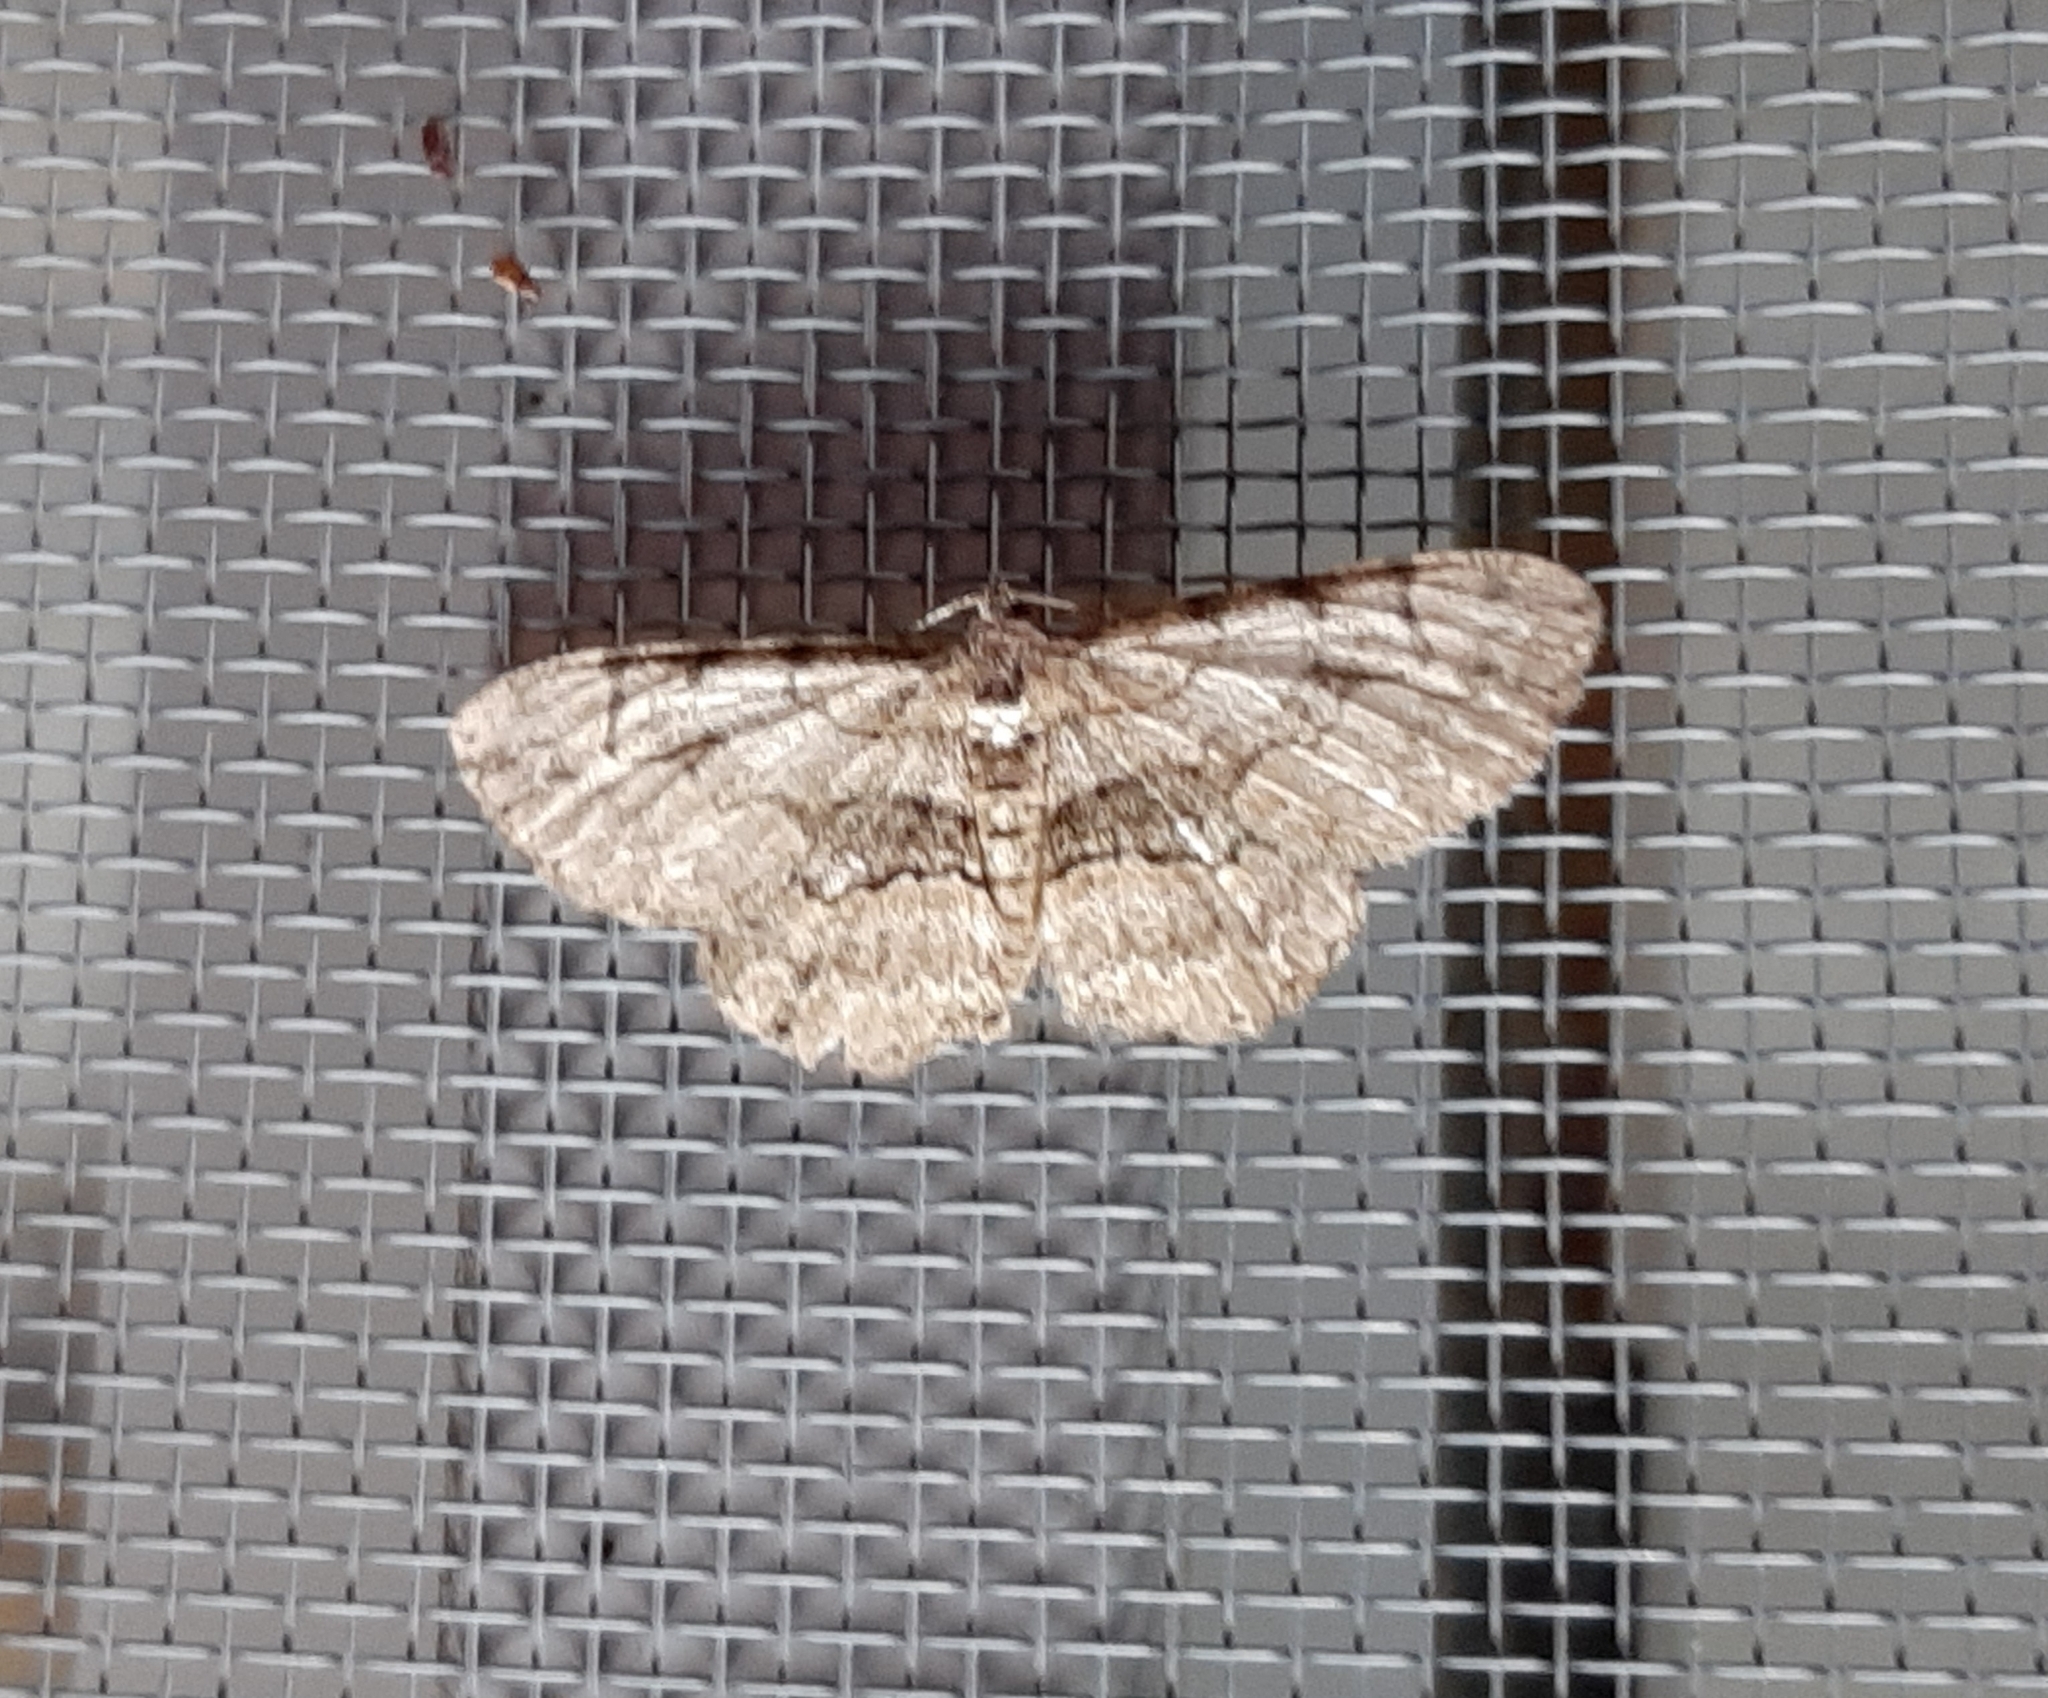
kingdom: Animalia
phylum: Arthropoda
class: Insecta
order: Lepidoptera
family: Geometridae
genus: Iridopsis
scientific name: Iridopsis ephyraria
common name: Pale-winged gray
